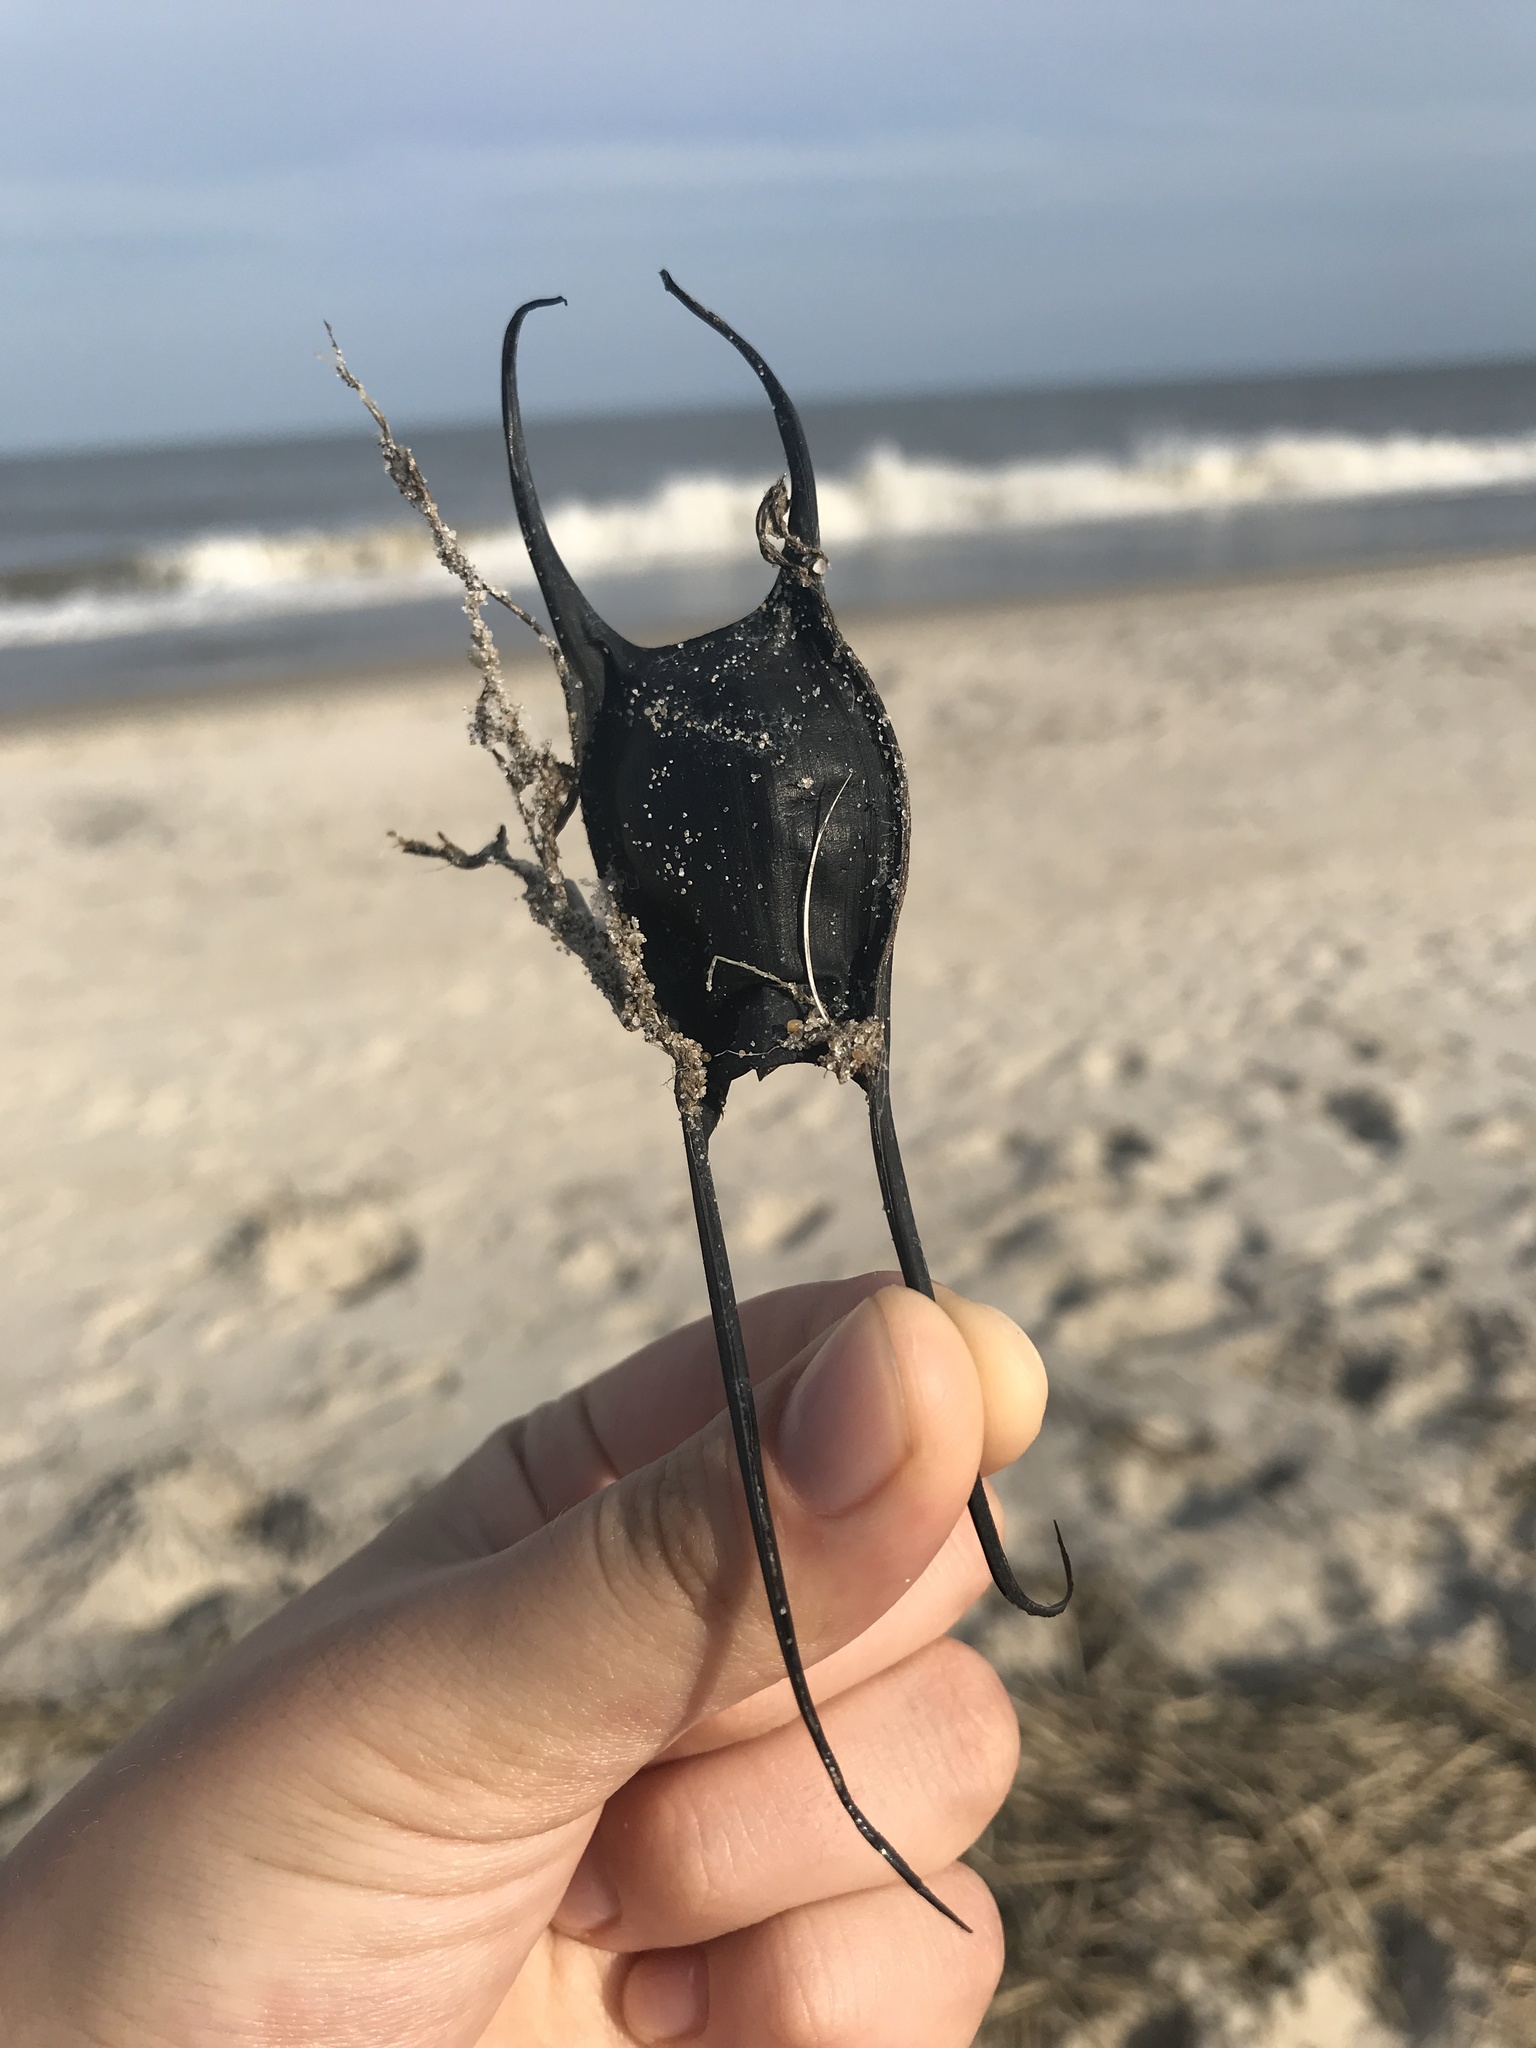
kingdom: Animalia
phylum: Chordata
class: Elasmobranchii
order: Rajiformes
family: Rajidae
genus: Leucoraja
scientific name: Leucoraja
